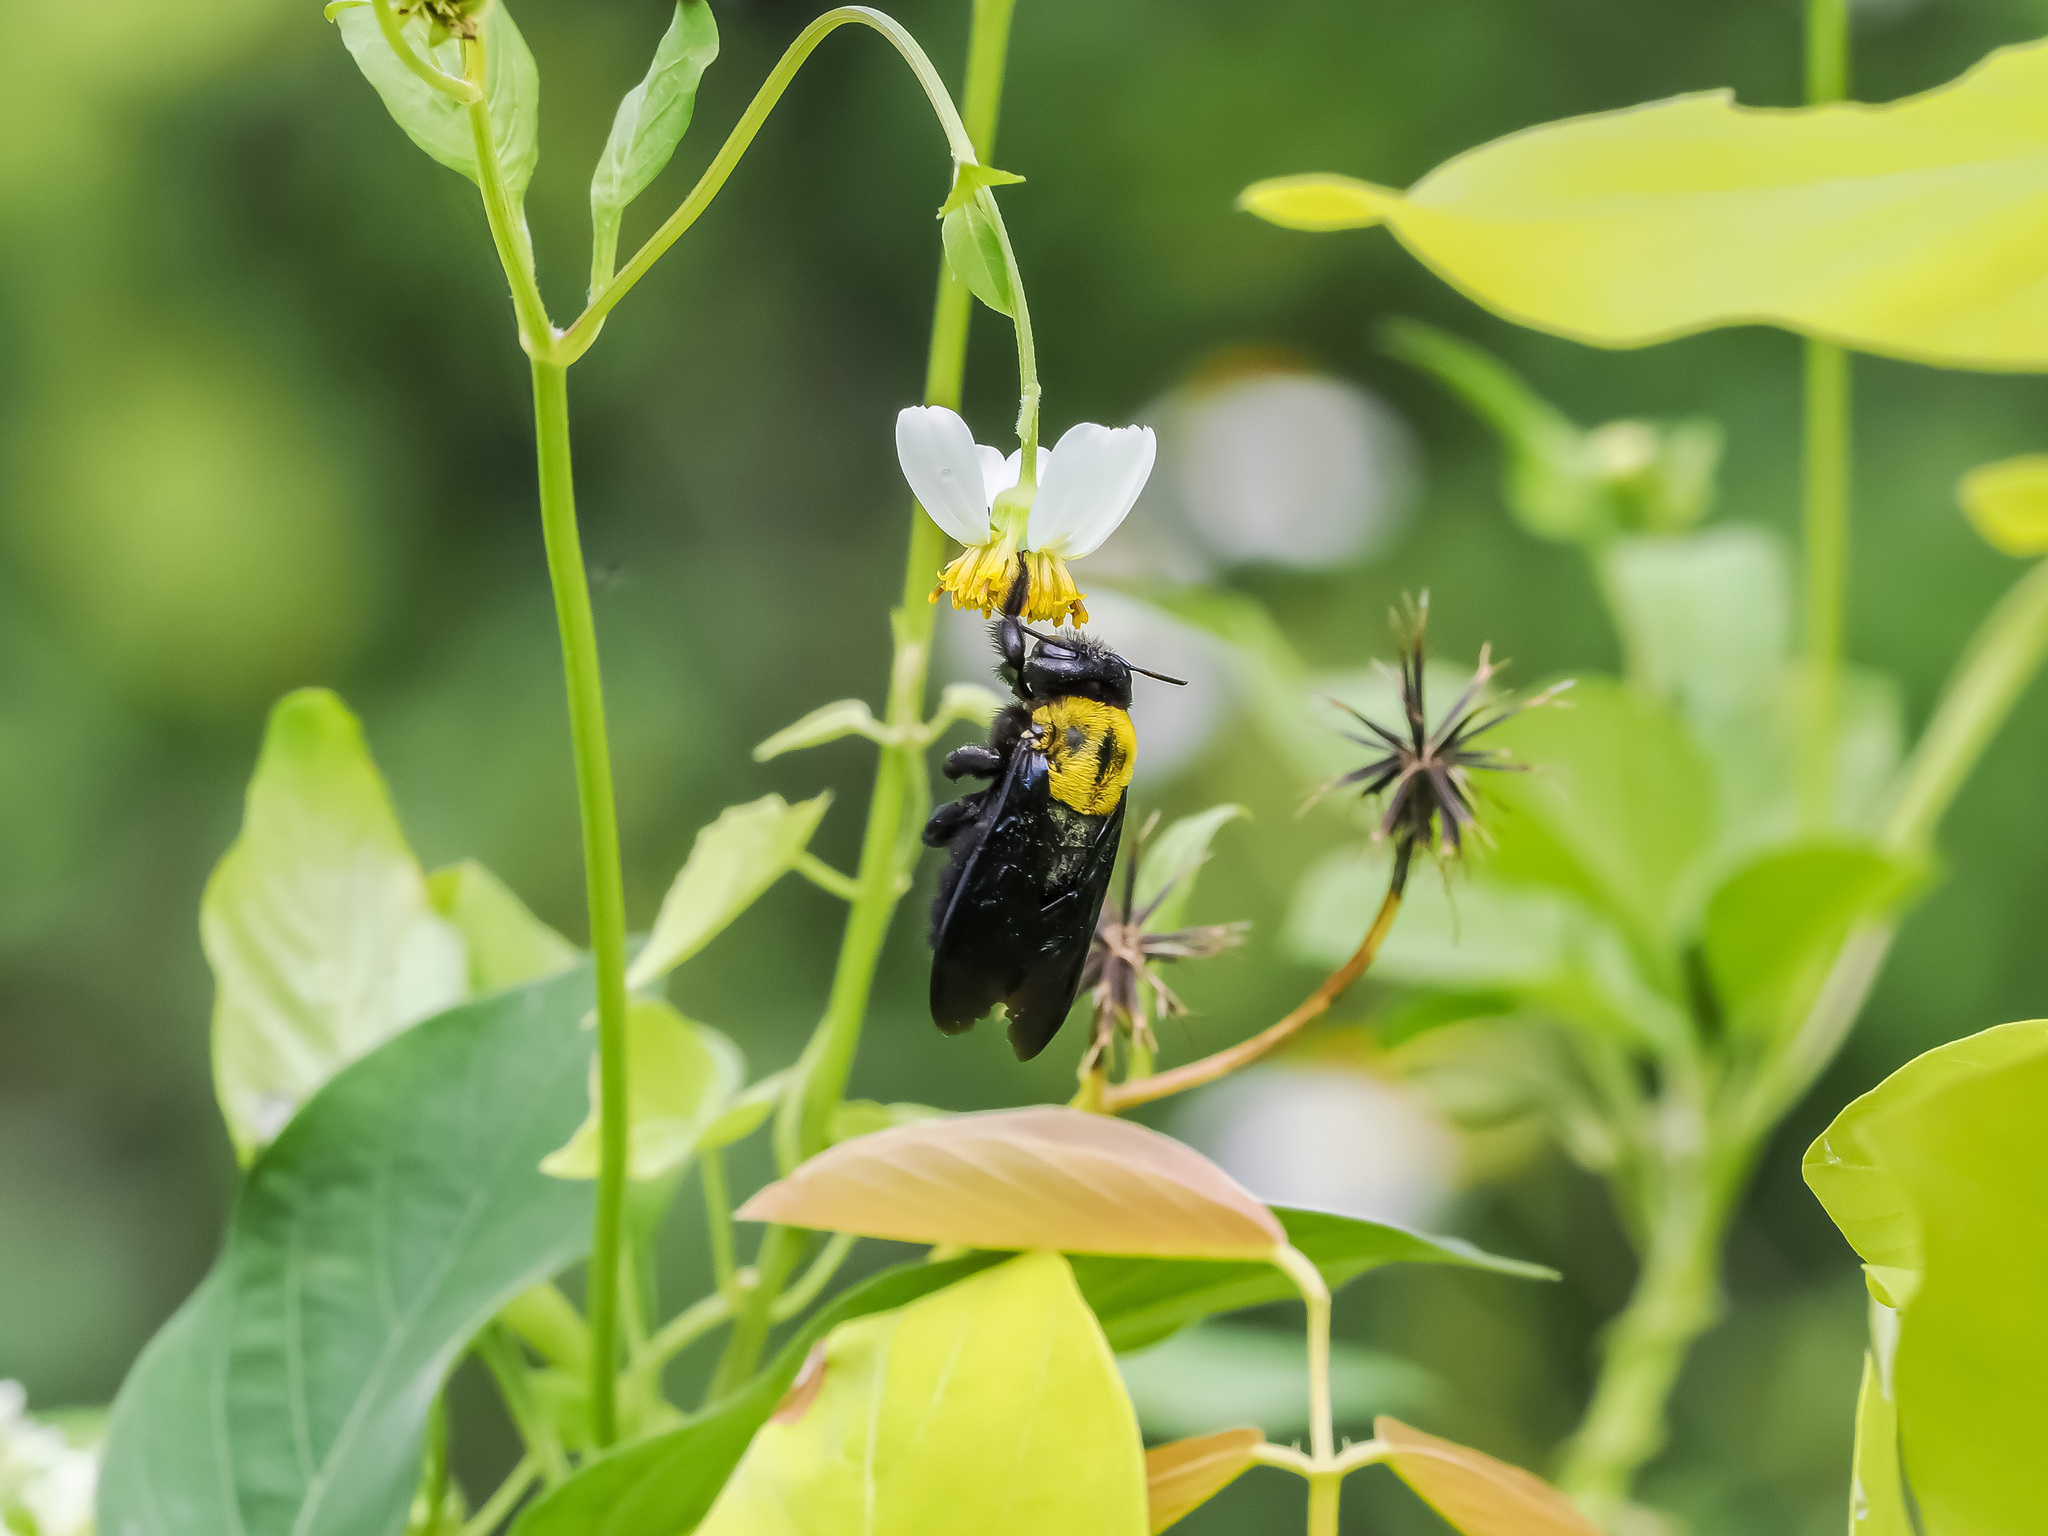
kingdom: Animalia
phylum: Arthropoda
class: Insecta
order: Hymenoptera
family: Apidae
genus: Xylocopa
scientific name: Xylocopa aestuans
